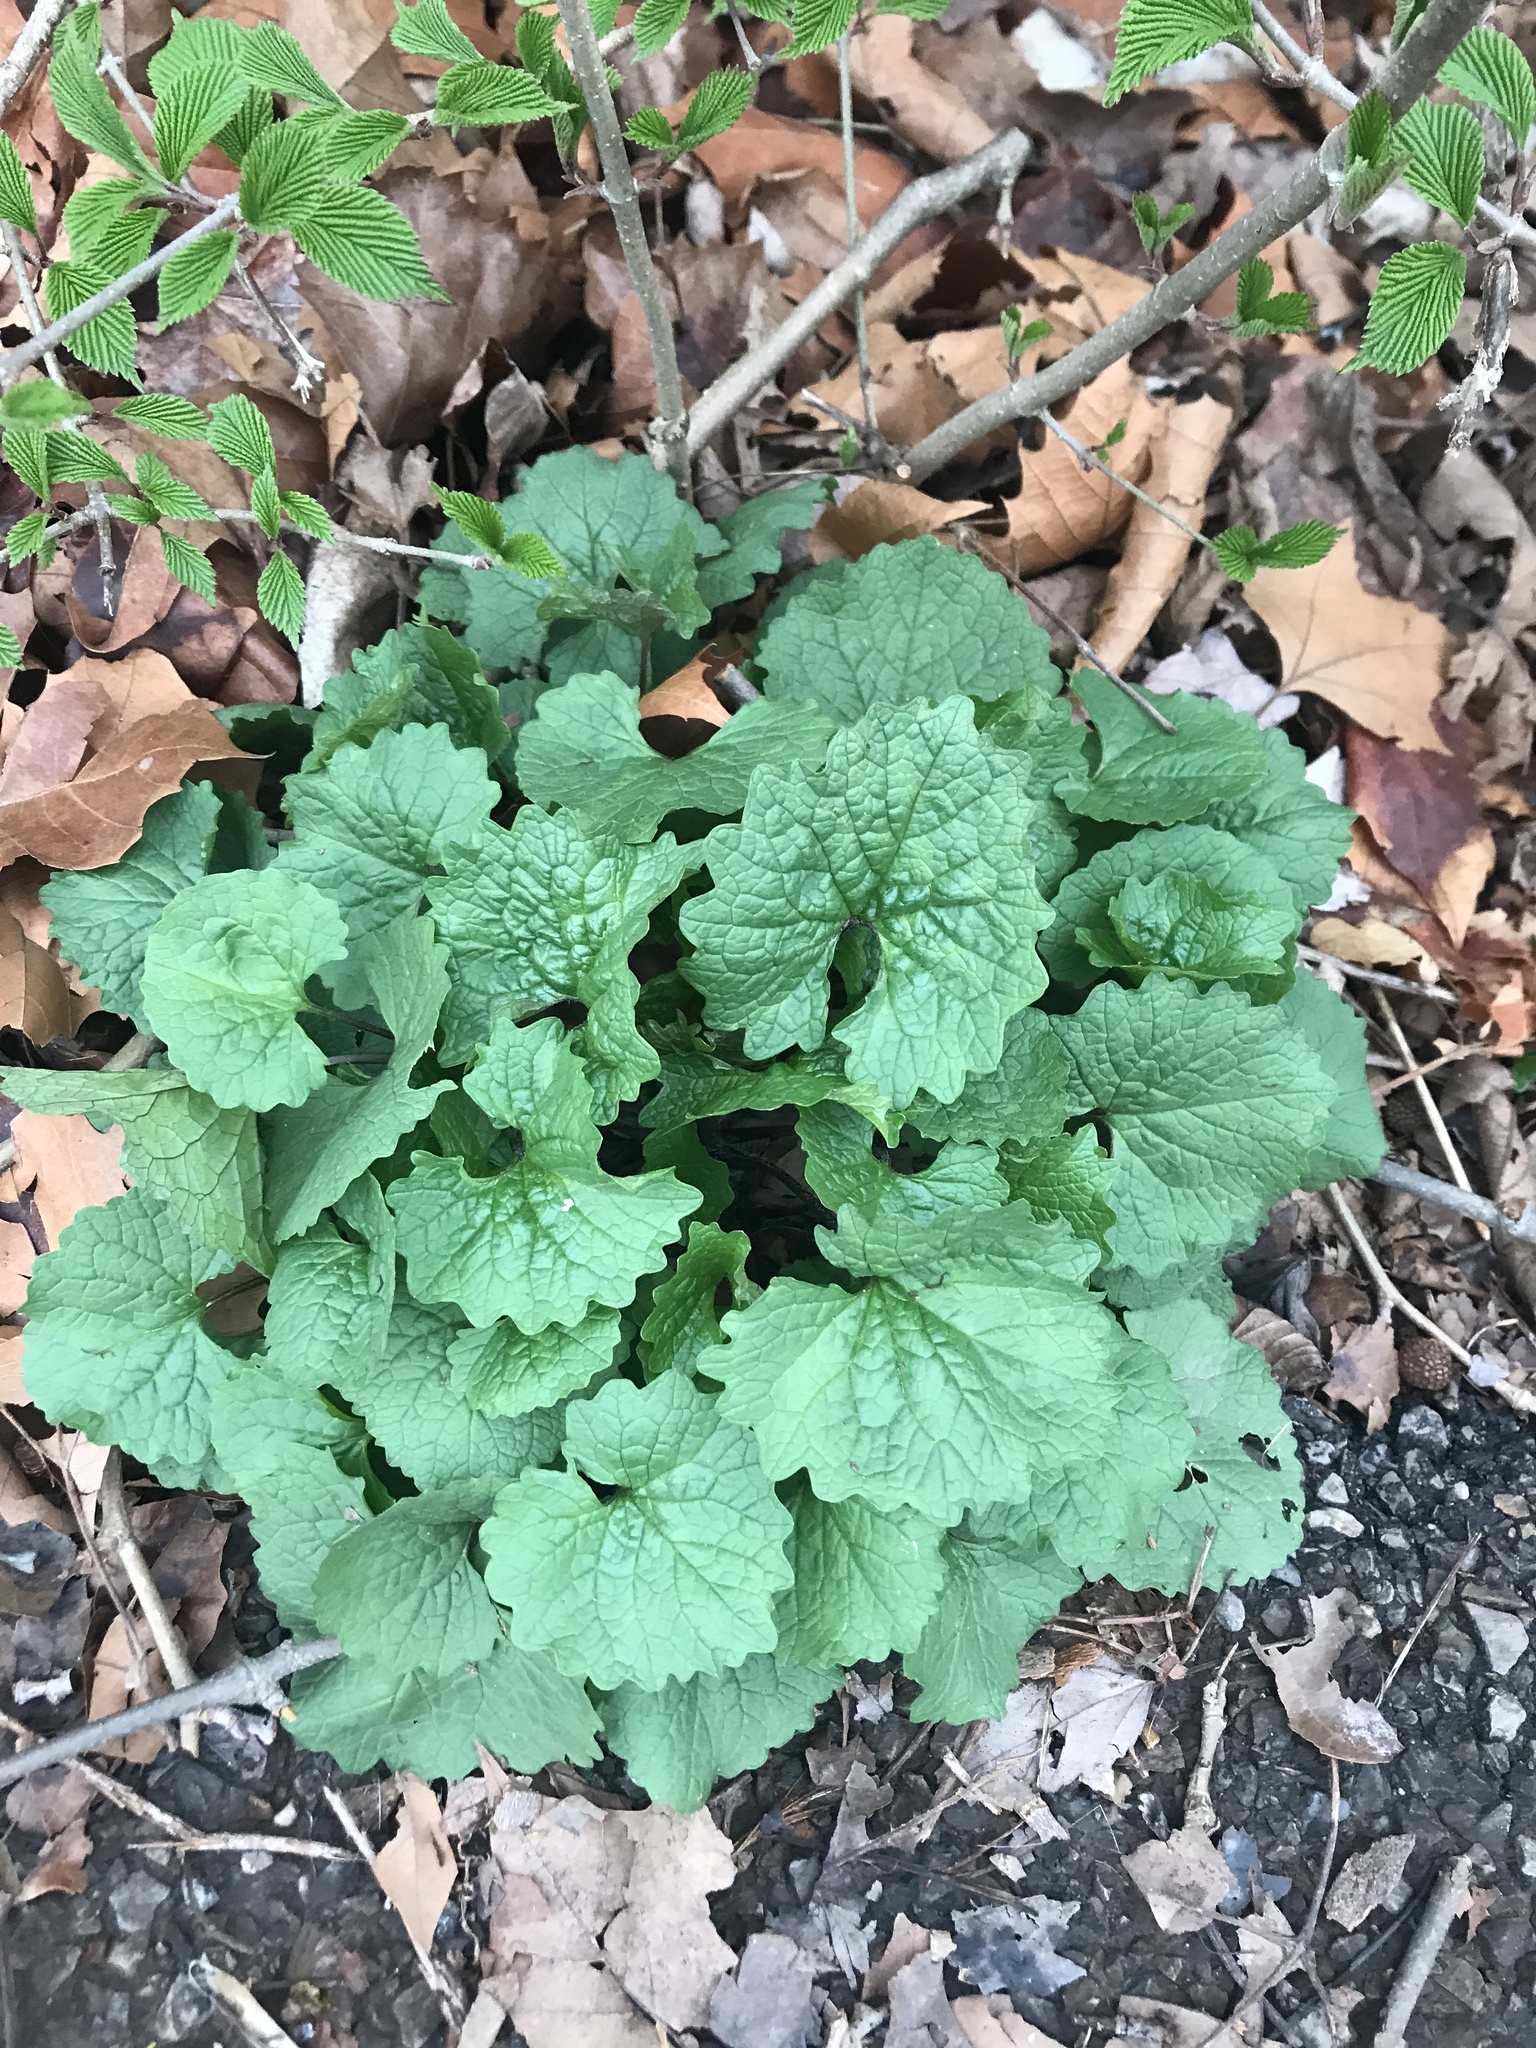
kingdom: Plantae
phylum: Tracheophyta
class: Magnoliopsida
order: Brassicales
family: Brassicaceae
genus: Alliaria
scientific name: Alliaria petiolata
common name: Garlic mustard
